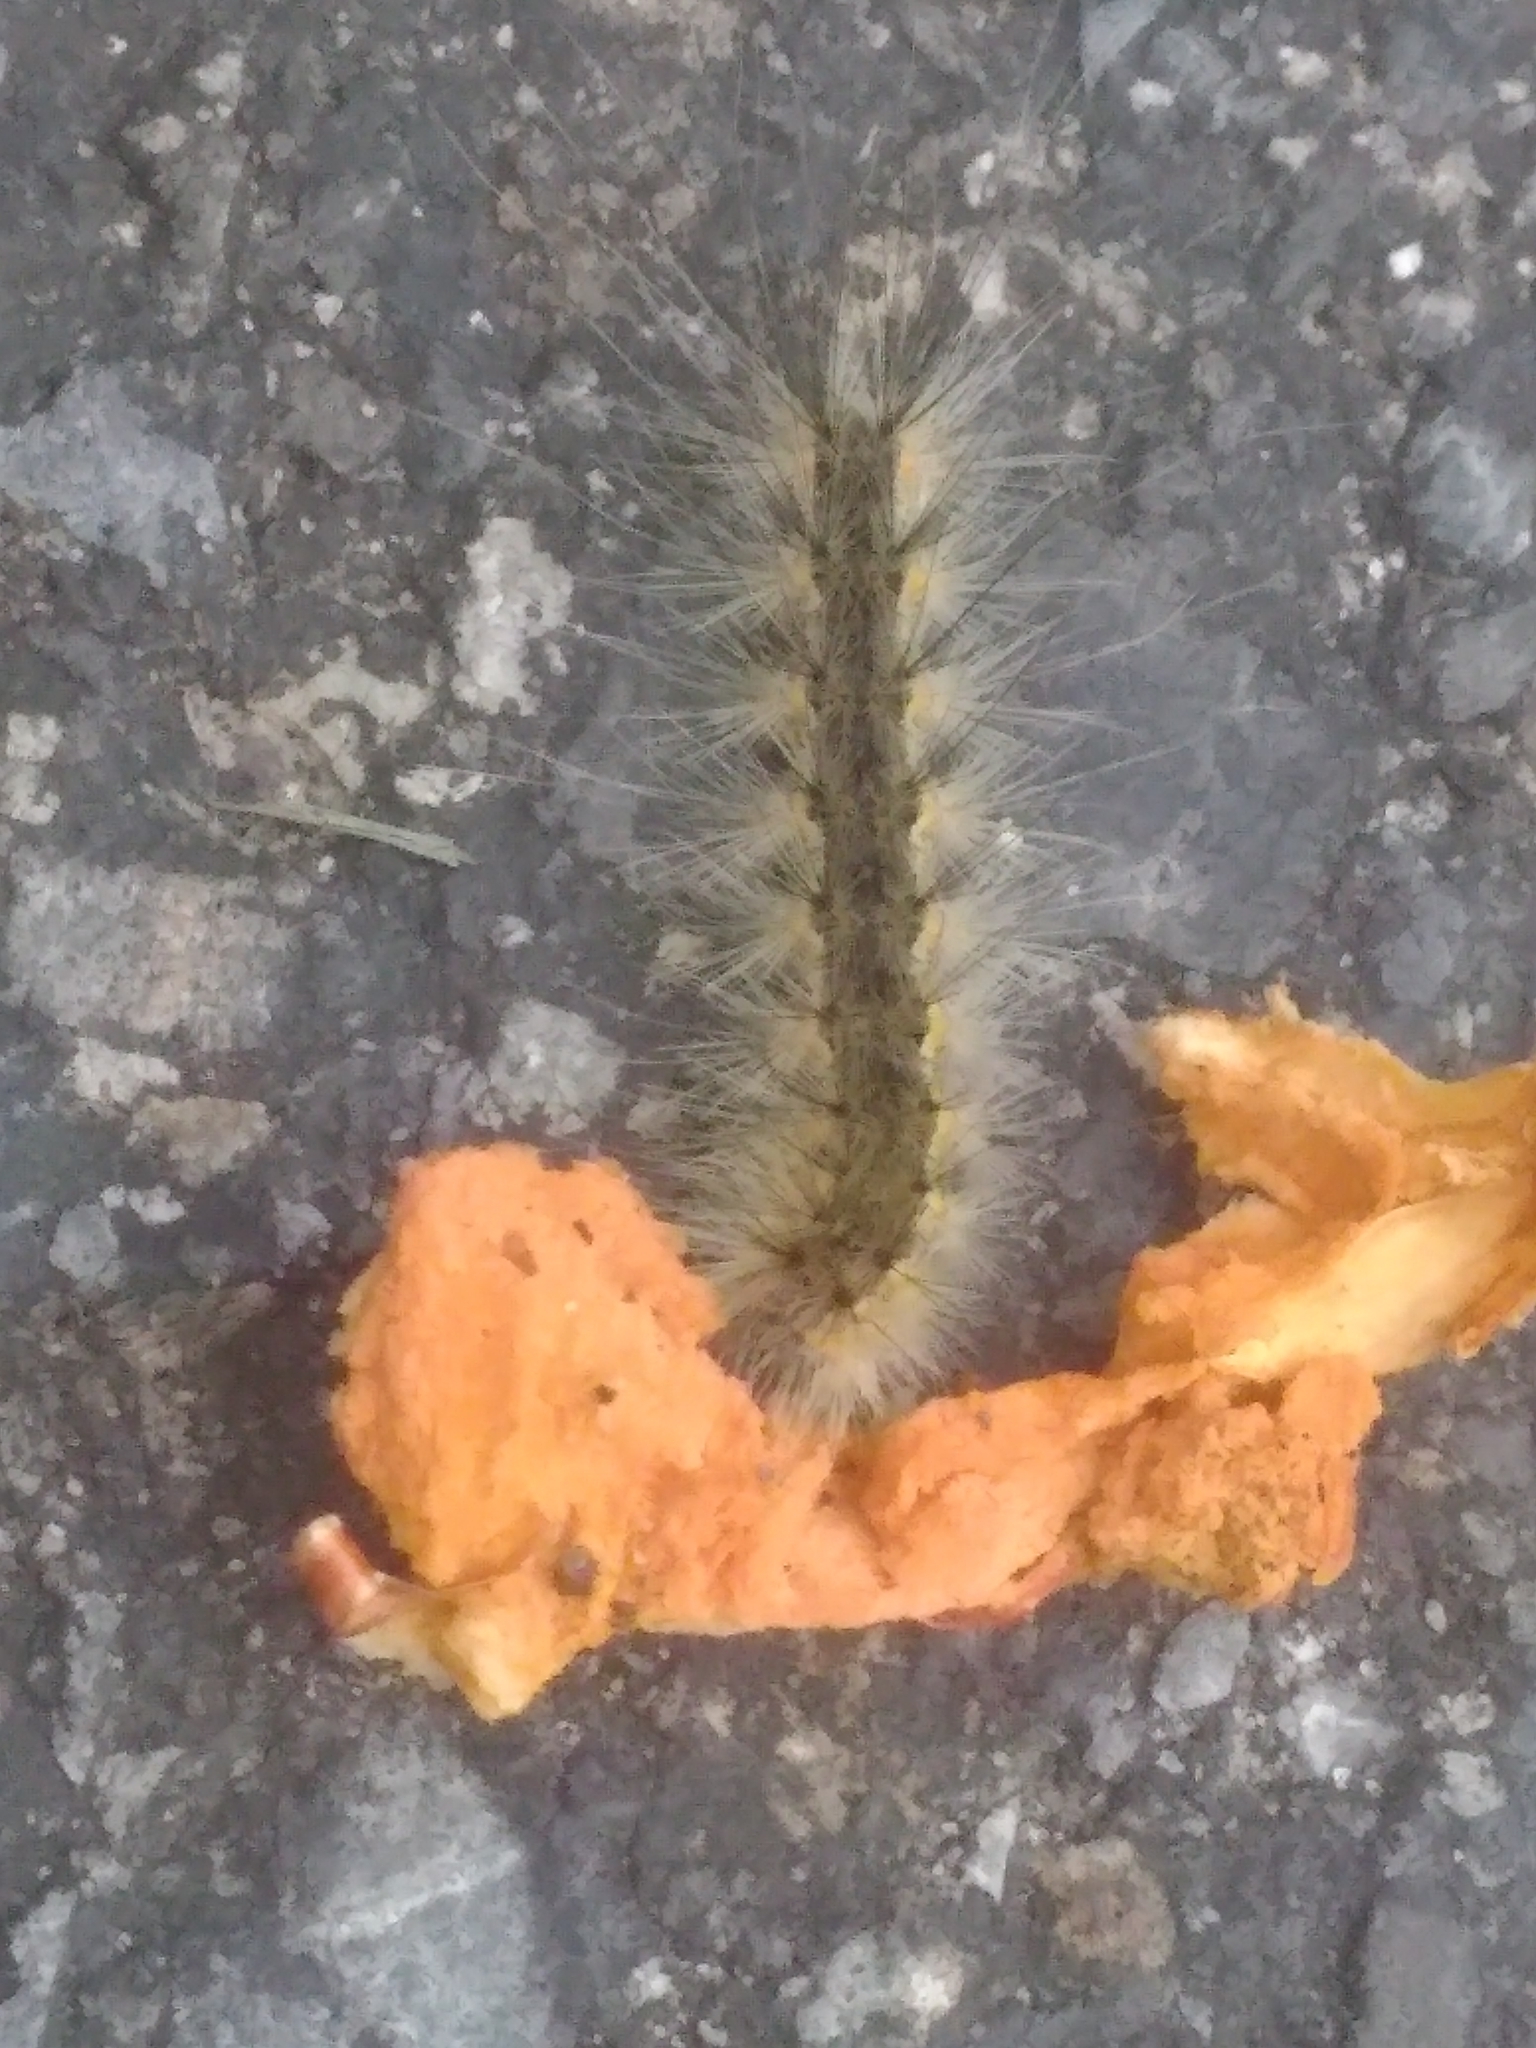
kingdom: Animalia
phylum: Arthropoda
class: Insecta
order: Lepidoptera
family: Erebidae
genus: Hyphantria
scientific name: Hyphantria cunea
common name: American white moth
